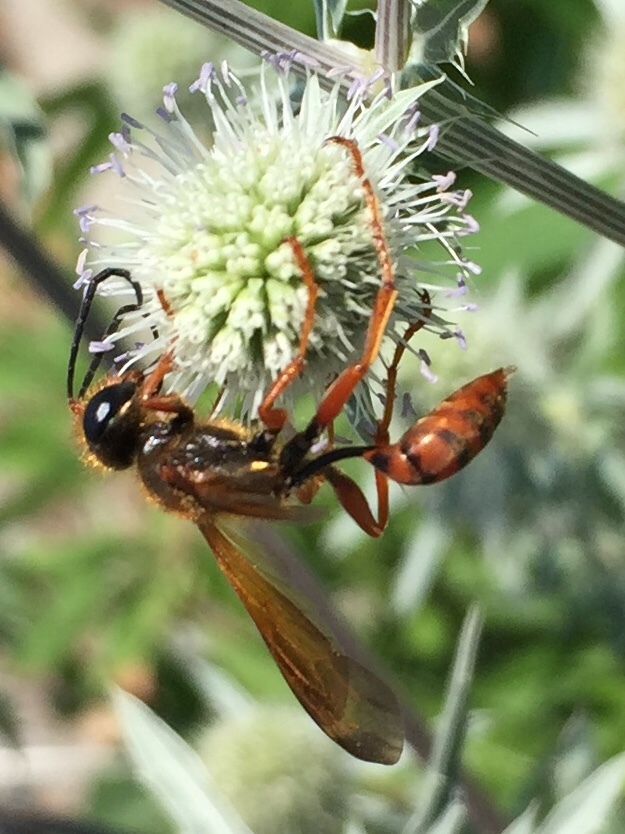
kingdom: Animalia
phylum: Arthropoda
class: Insecta
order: Hymenoptera
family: Sphecidae
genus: Isodontia
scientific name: Isodontia elegans
